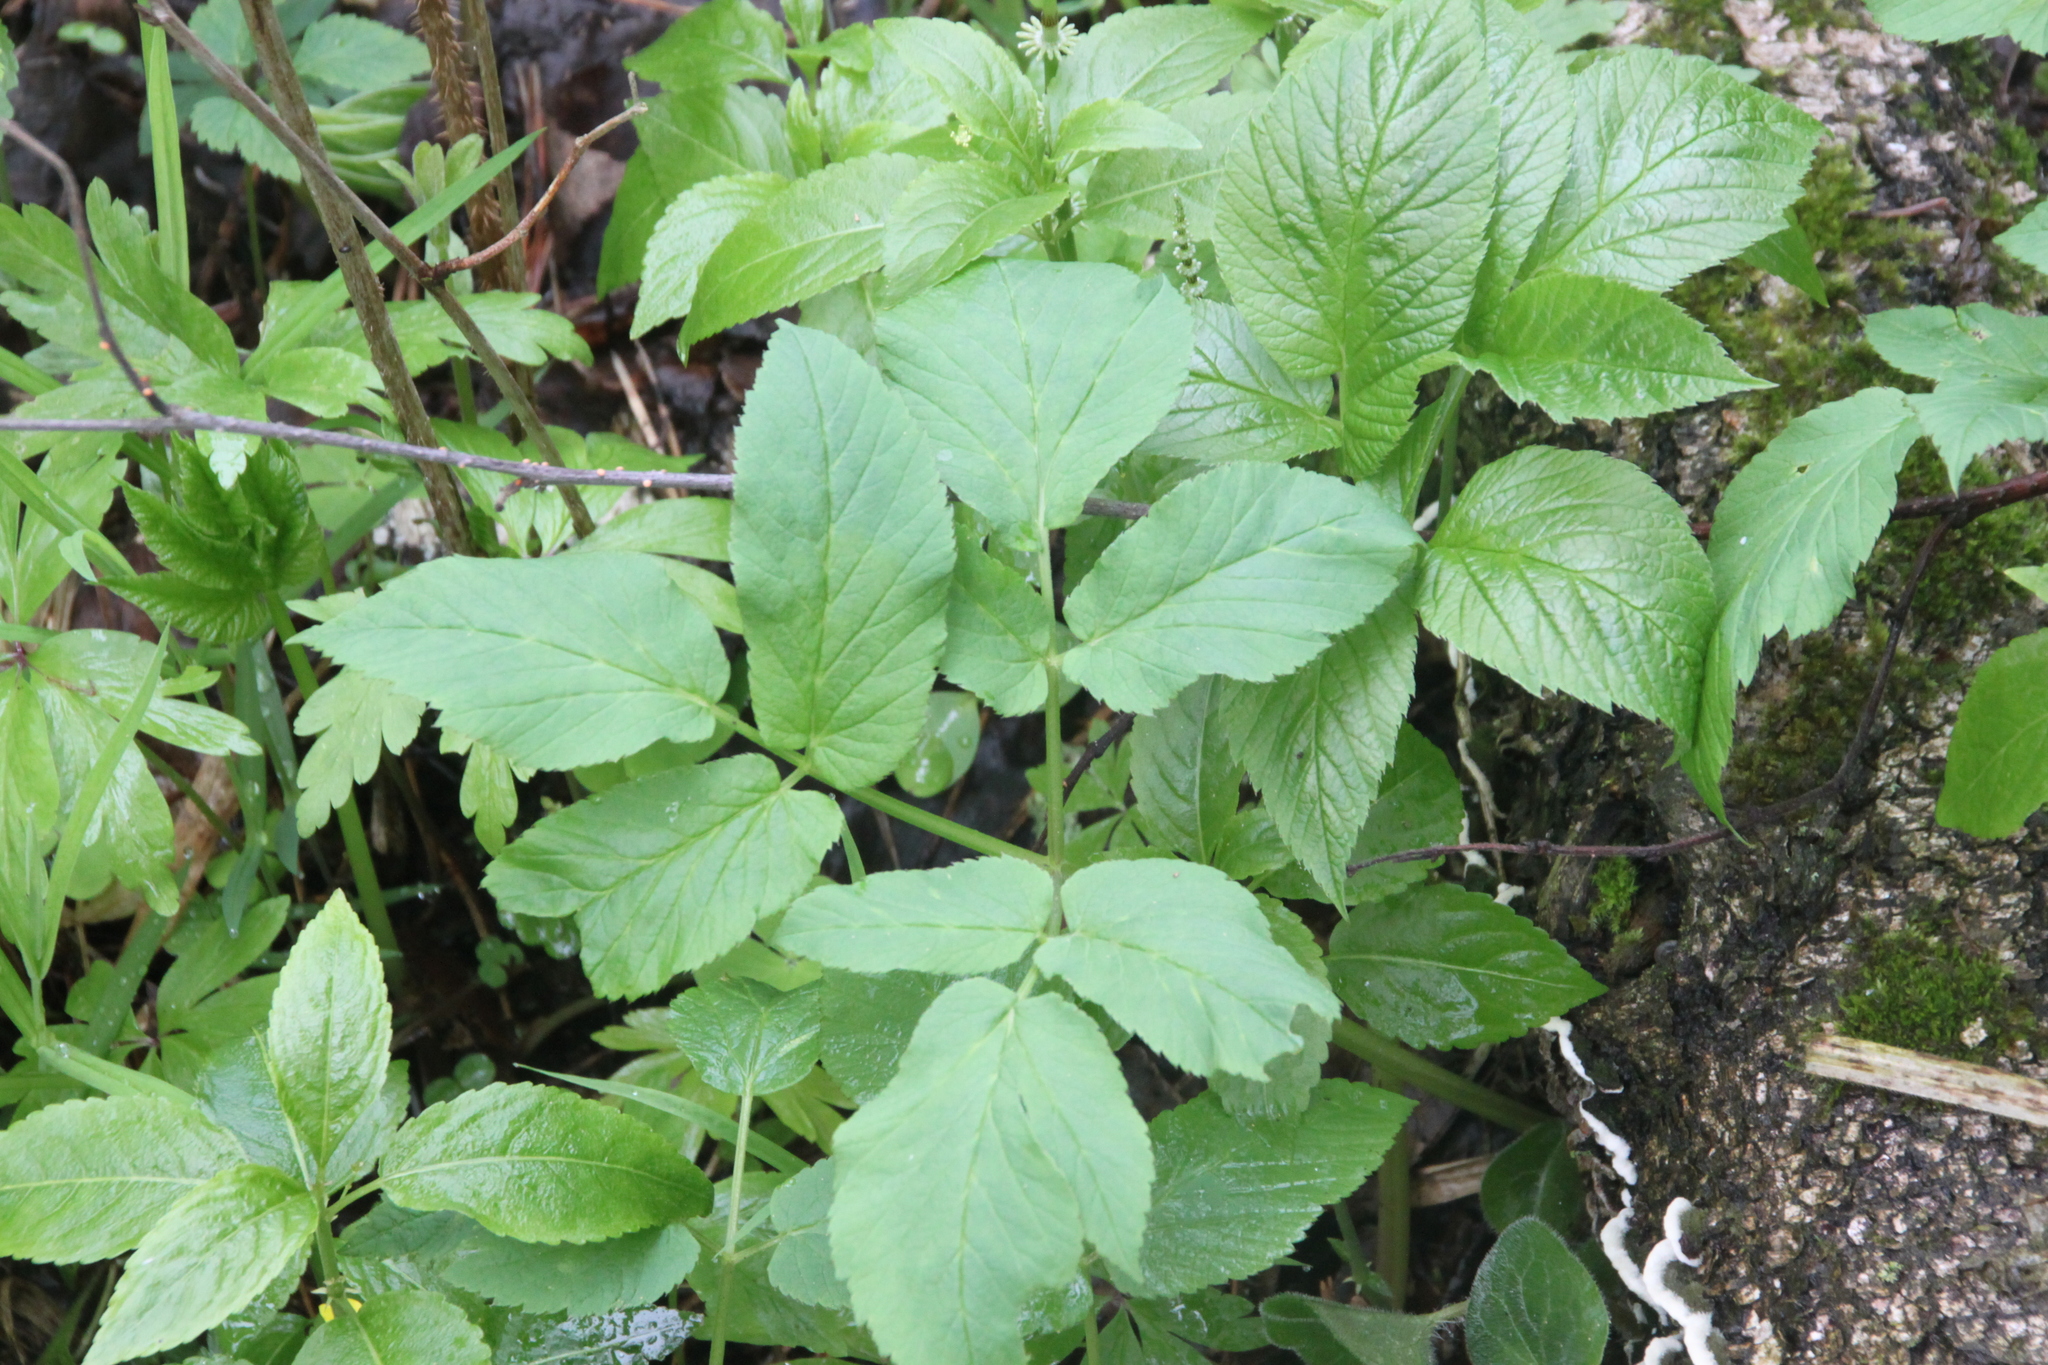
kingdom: Plantae
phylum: Tracheophyta
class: Magnoliopsida
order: Apiales
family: Apiaceae
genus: Aegopodium
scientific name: Aegopodium podagraria
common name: Ground-elder
